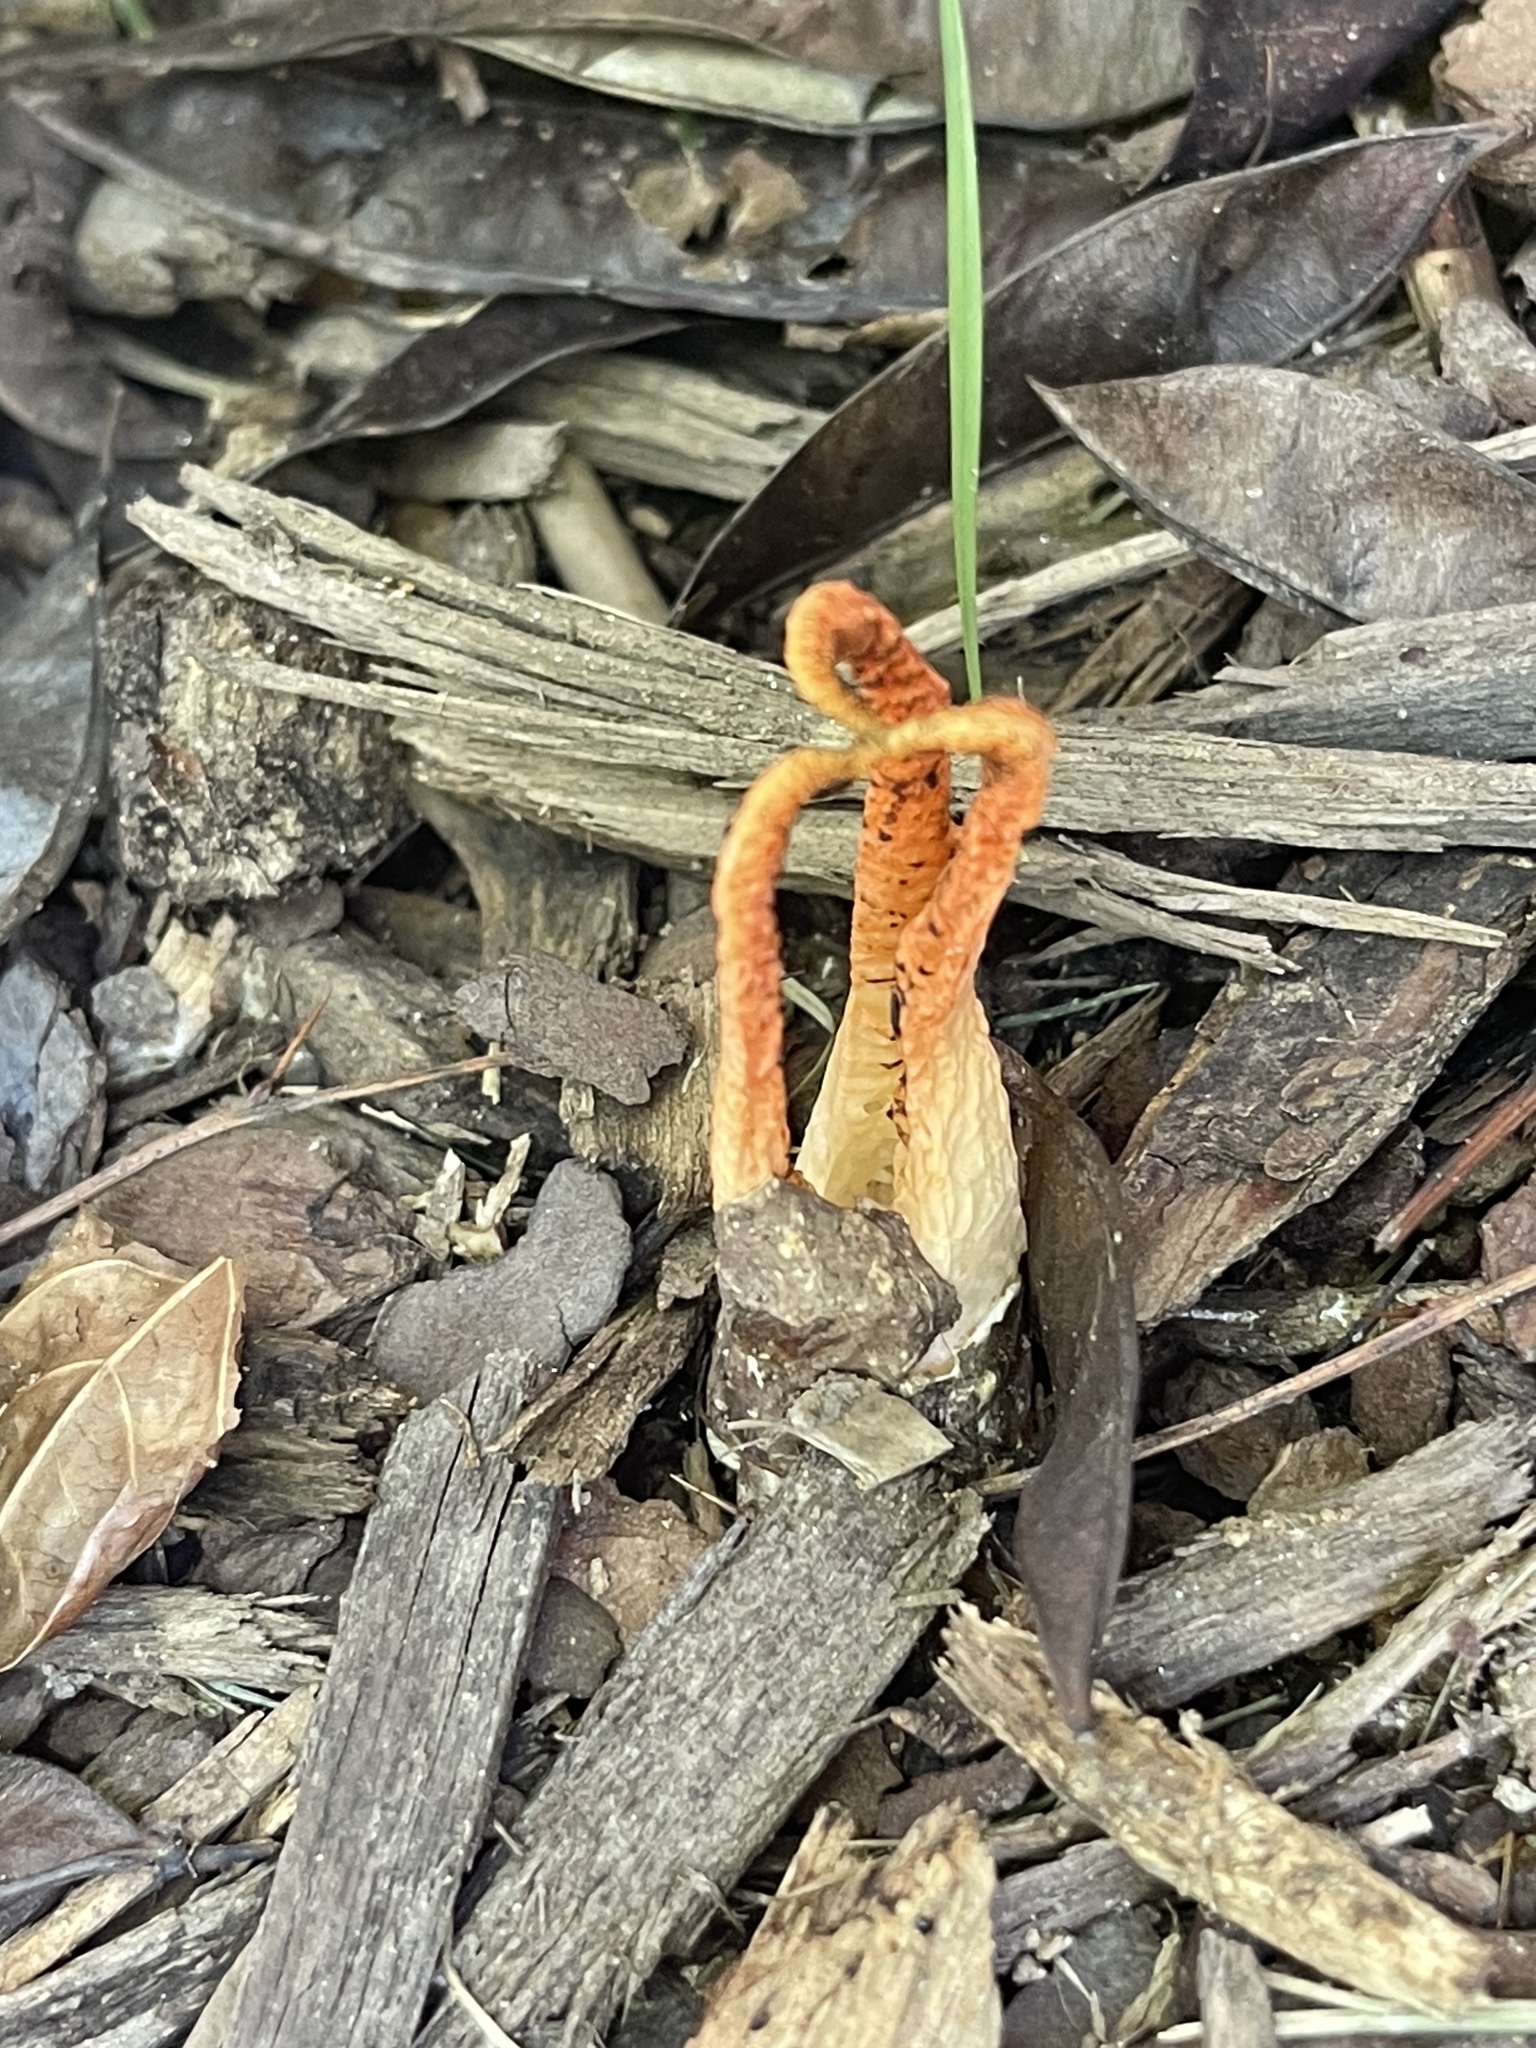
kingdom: Fungi
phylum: Basidiomycota
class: Agaricomycetes
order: Phallales
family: Phallaceae
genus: Pseudocolus
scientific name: Pseudocolus fusiformis
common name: Stinky squid
